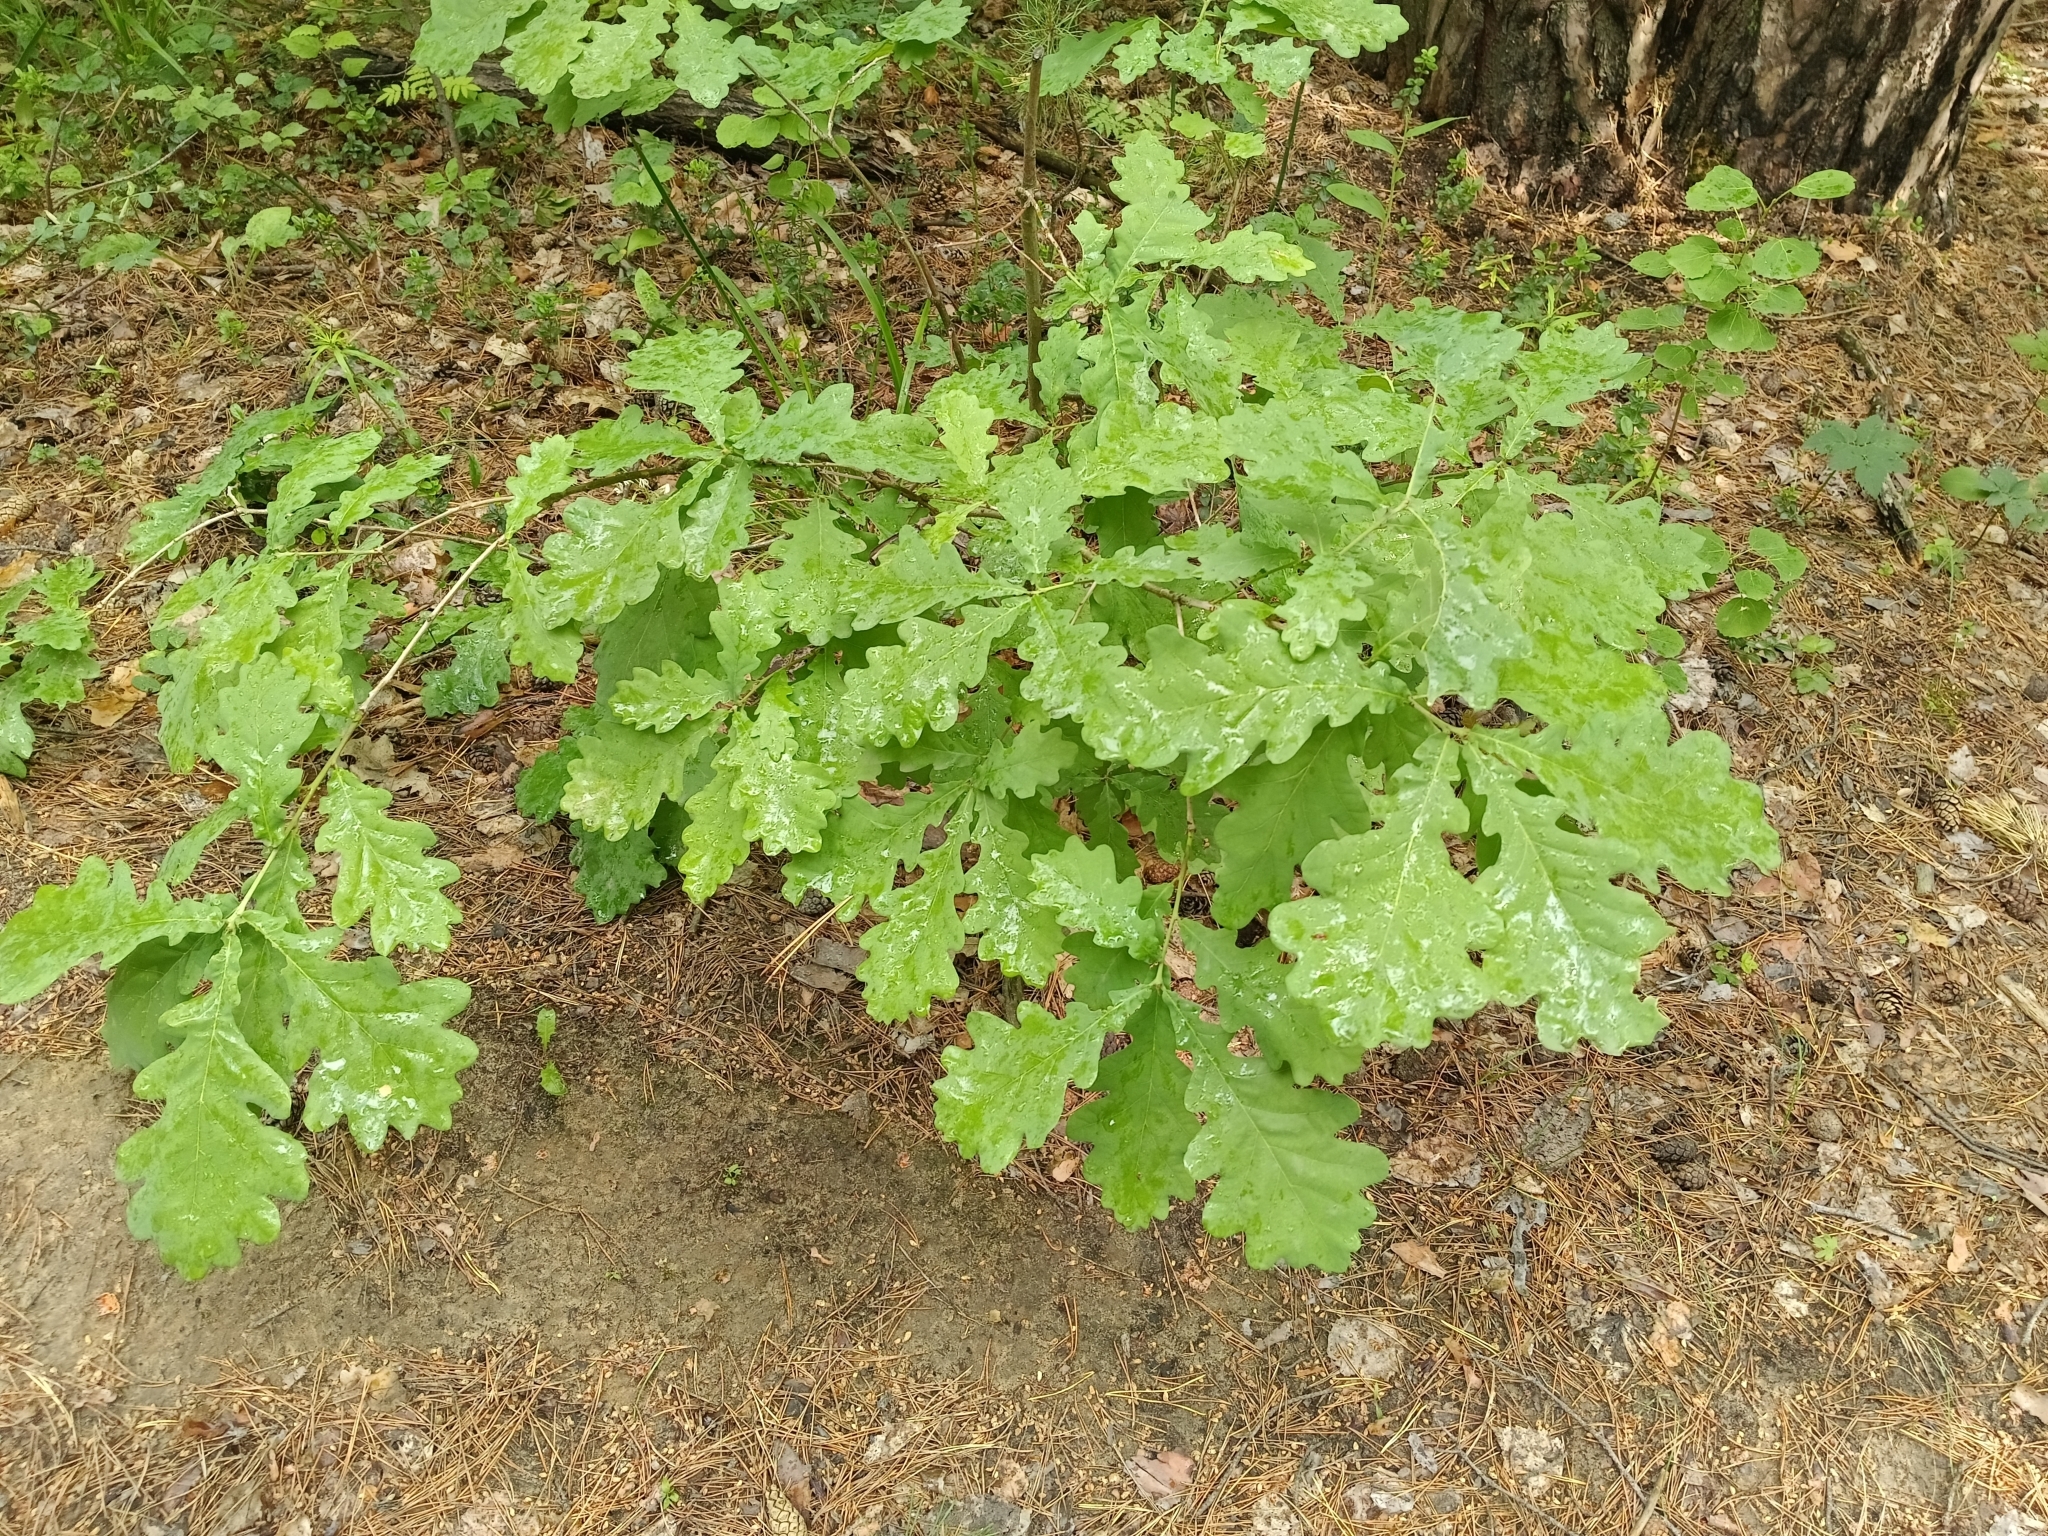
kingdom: Plantae
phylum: Tracheophyta
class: Magnoliopsida
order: Fagales
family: Fagaceae
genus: Quercus
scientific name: Quercus robur
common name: Pedunculate oak
